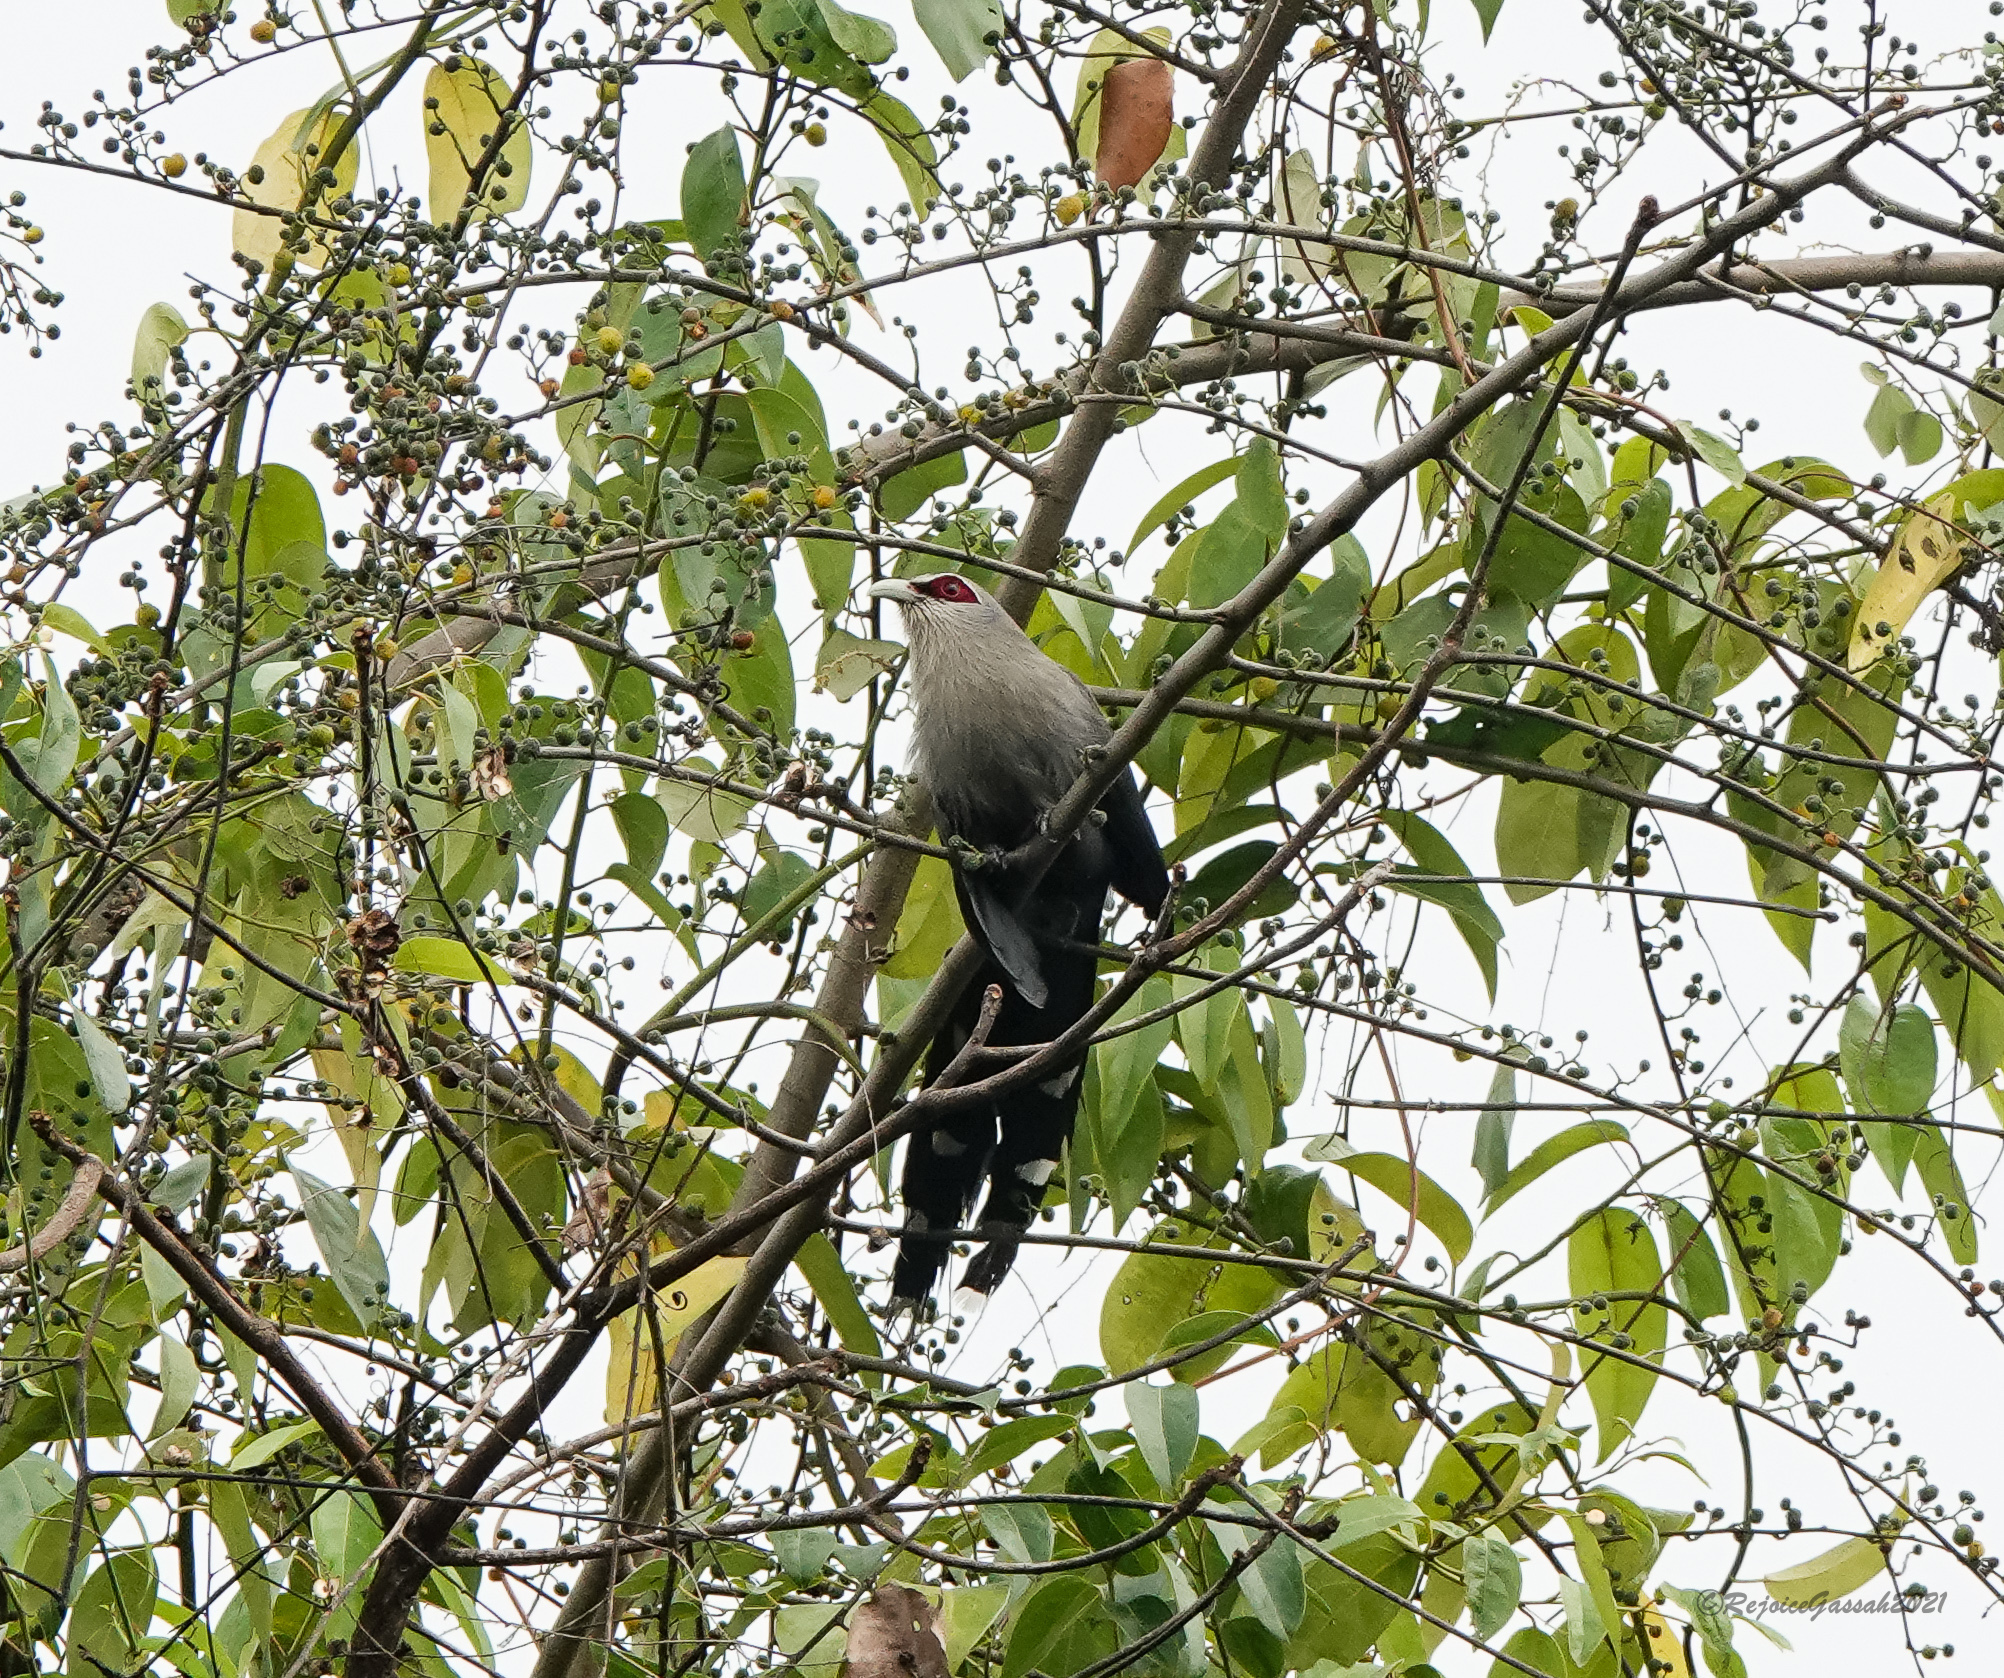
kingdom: Animalia
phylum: Chordata
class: Aves
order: Cuculiformes
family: Cuculidae
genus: Rhopodytes
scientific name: Rhopodytes tristis
